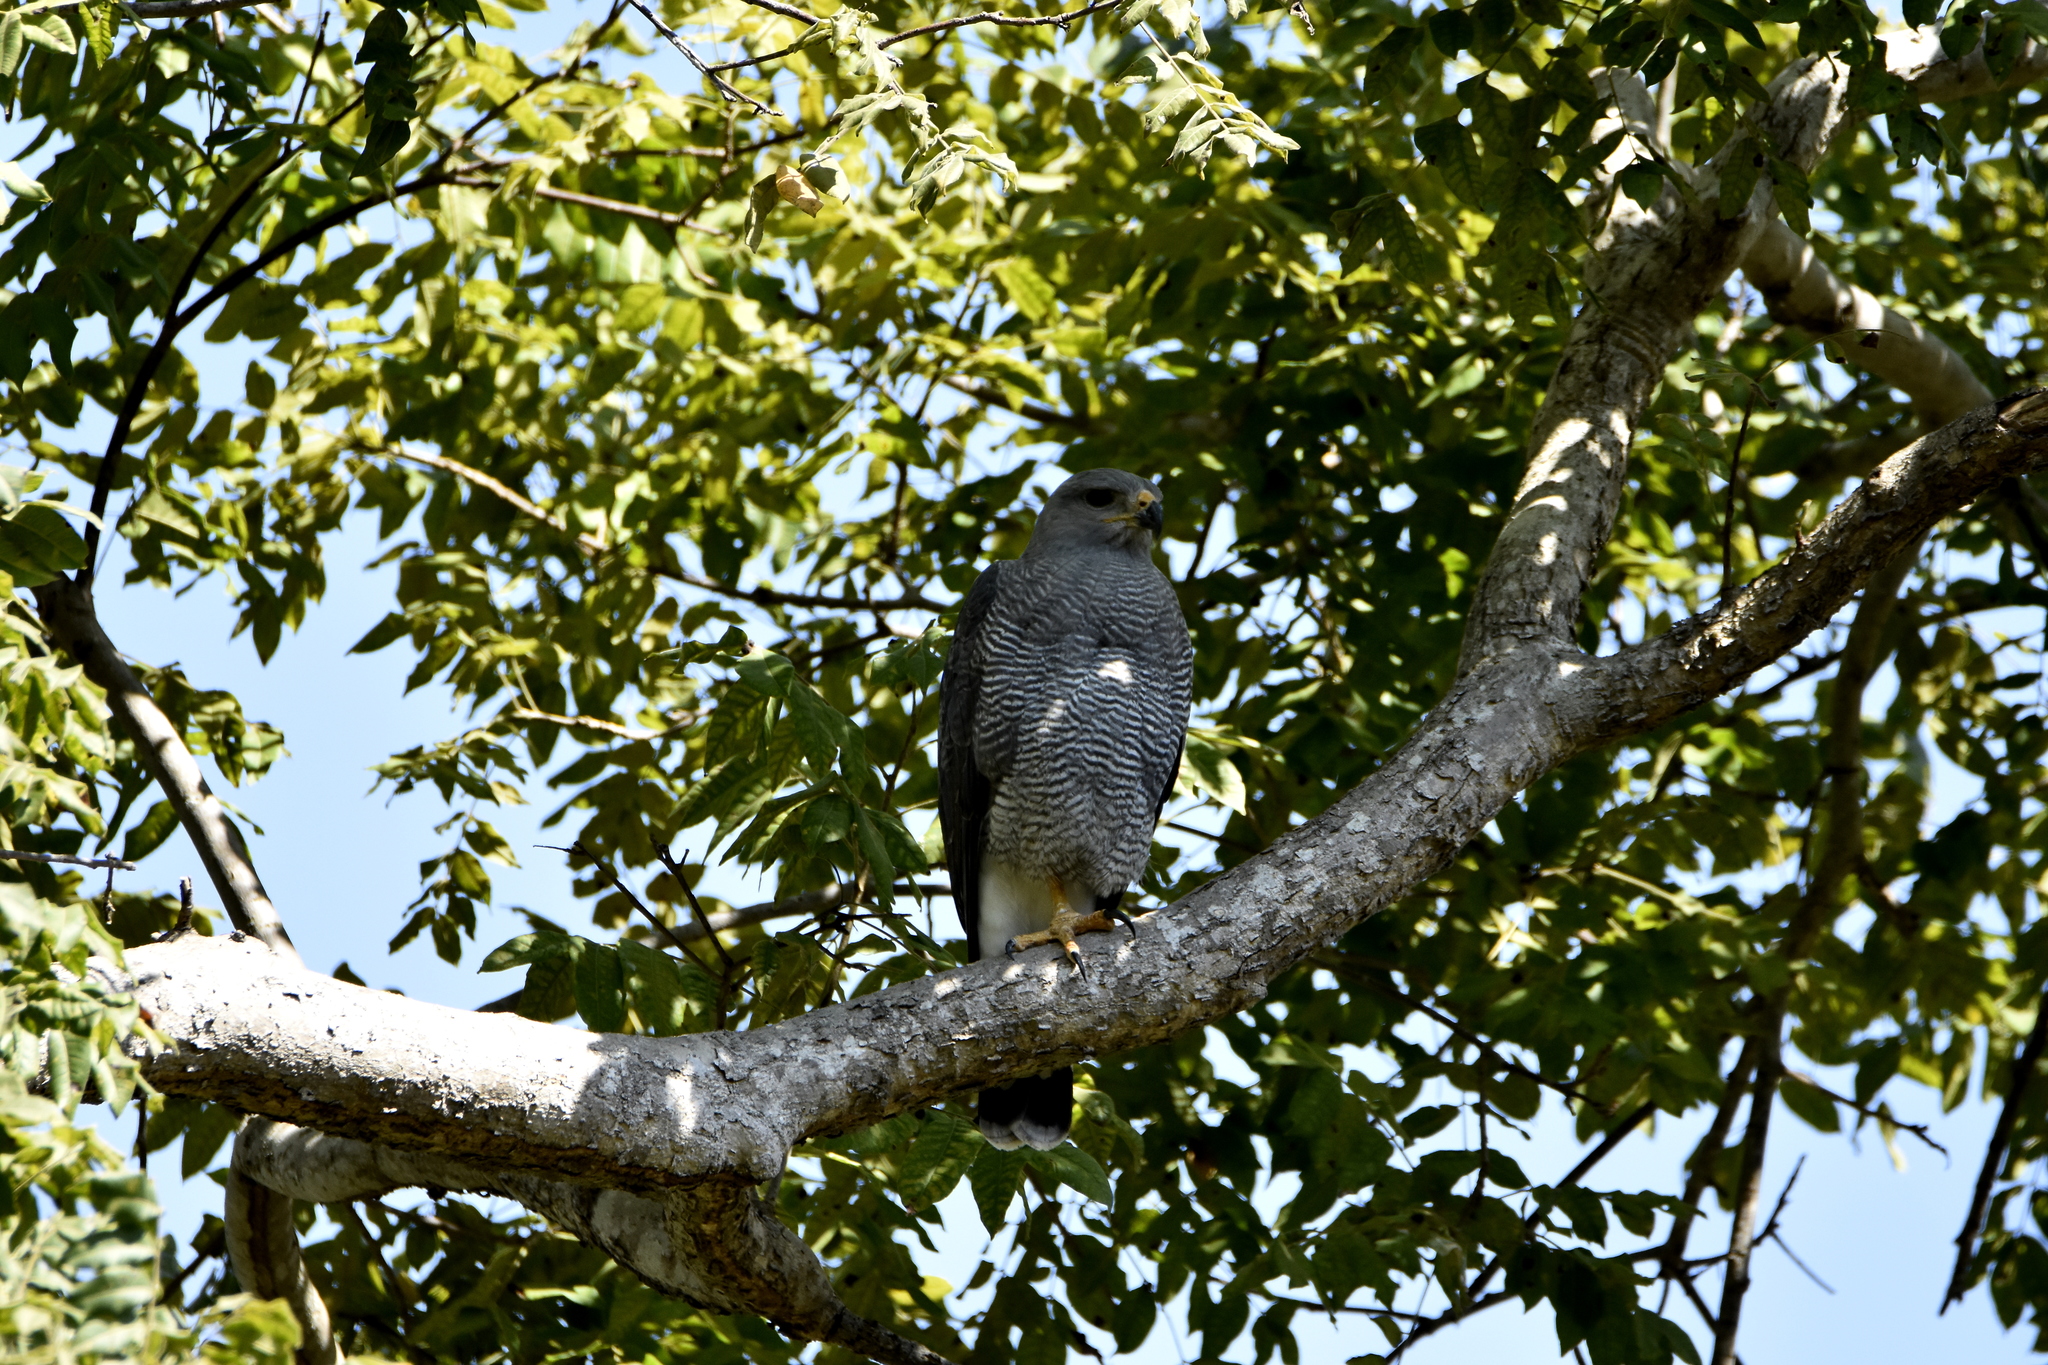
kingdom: Animalia
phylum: Chordata
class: Aves
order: Accipitriformes
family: Accipitridae
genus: Buteo
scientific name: Buteo nitidus
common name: Grey-lined hawk
